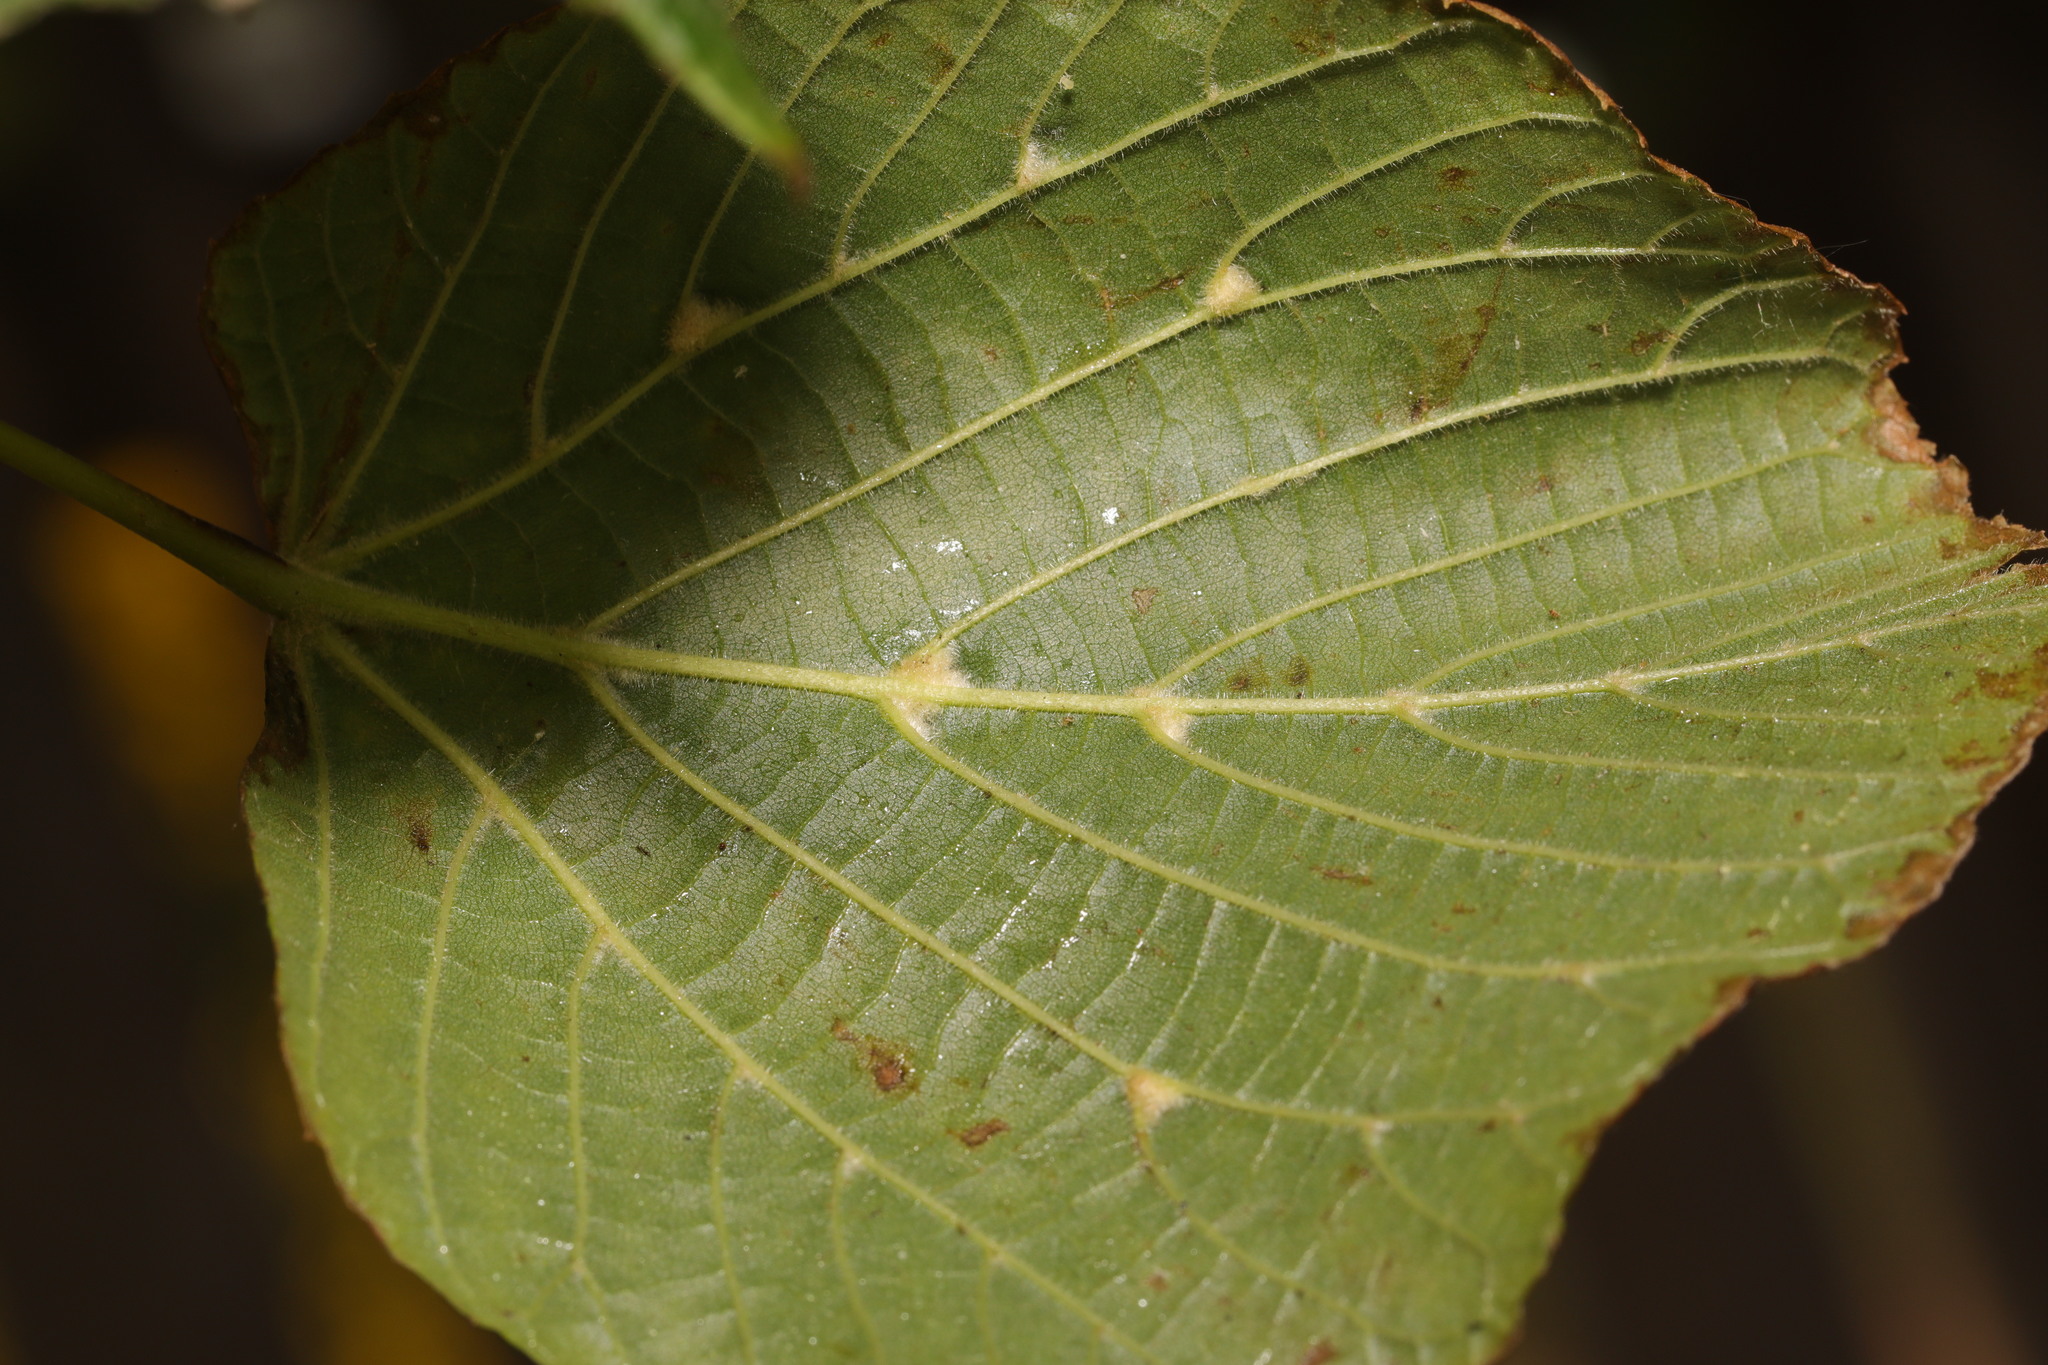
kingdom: Animalia
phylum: Arthropoda
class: Arachnida
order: Trombidiformes
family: Eriophyidae
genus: Eriophyes
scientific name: Eriophyes exilis
